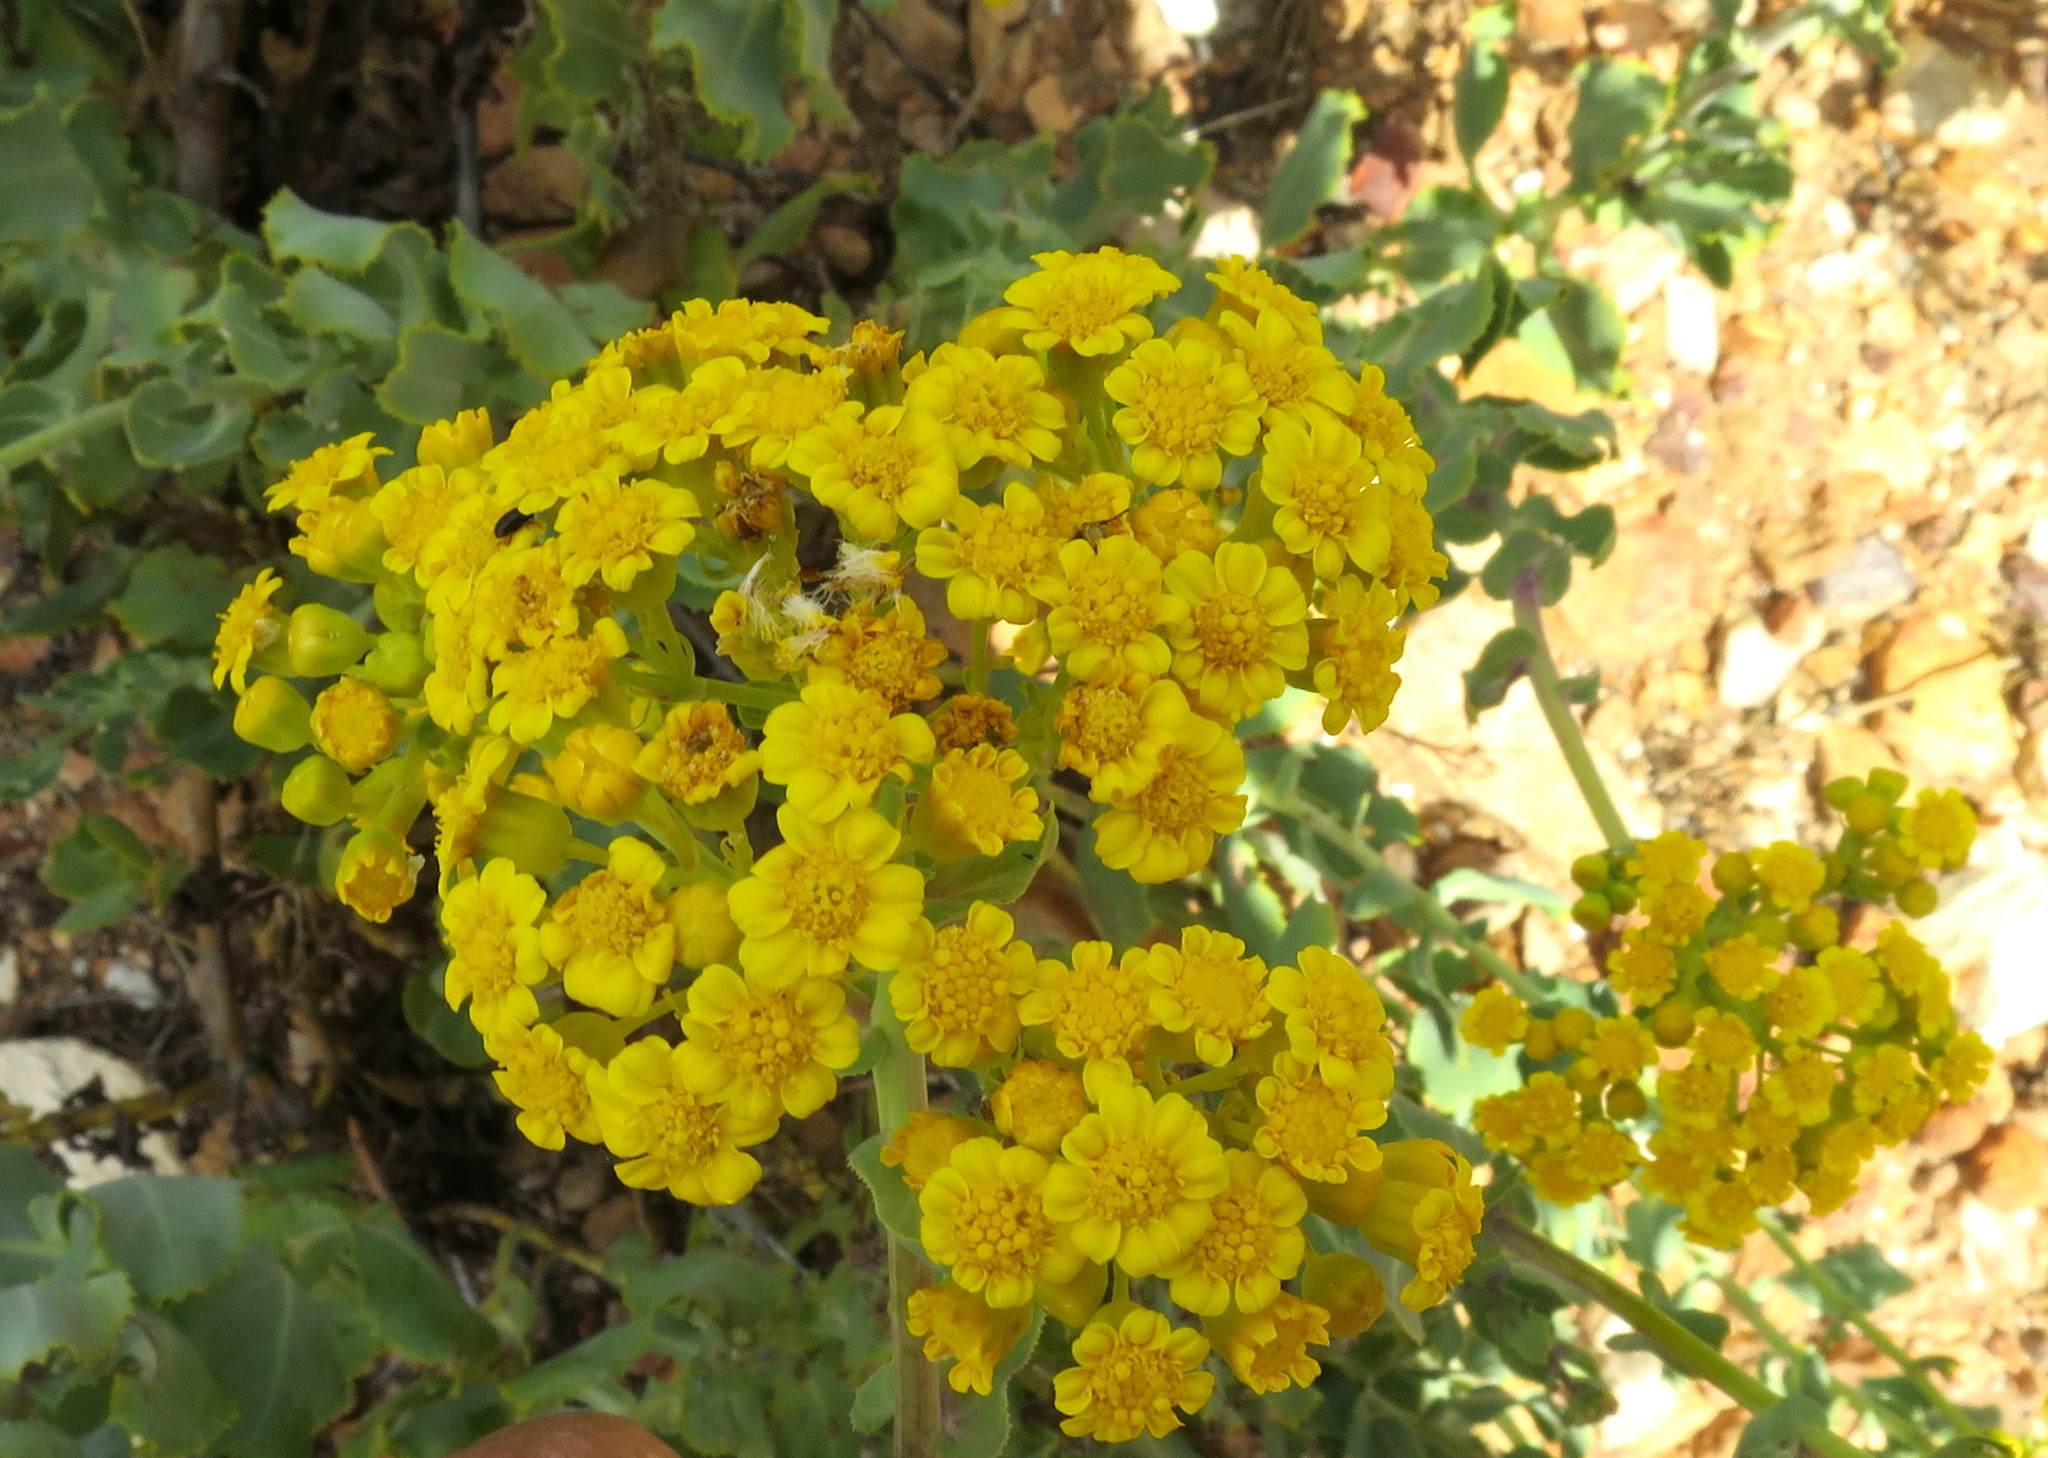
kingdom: Plantae
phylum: Tracheophyta
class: Magnoliopsida
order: Asterales
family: Asteraceae
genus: Othonna
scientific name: Othonna parviflora
